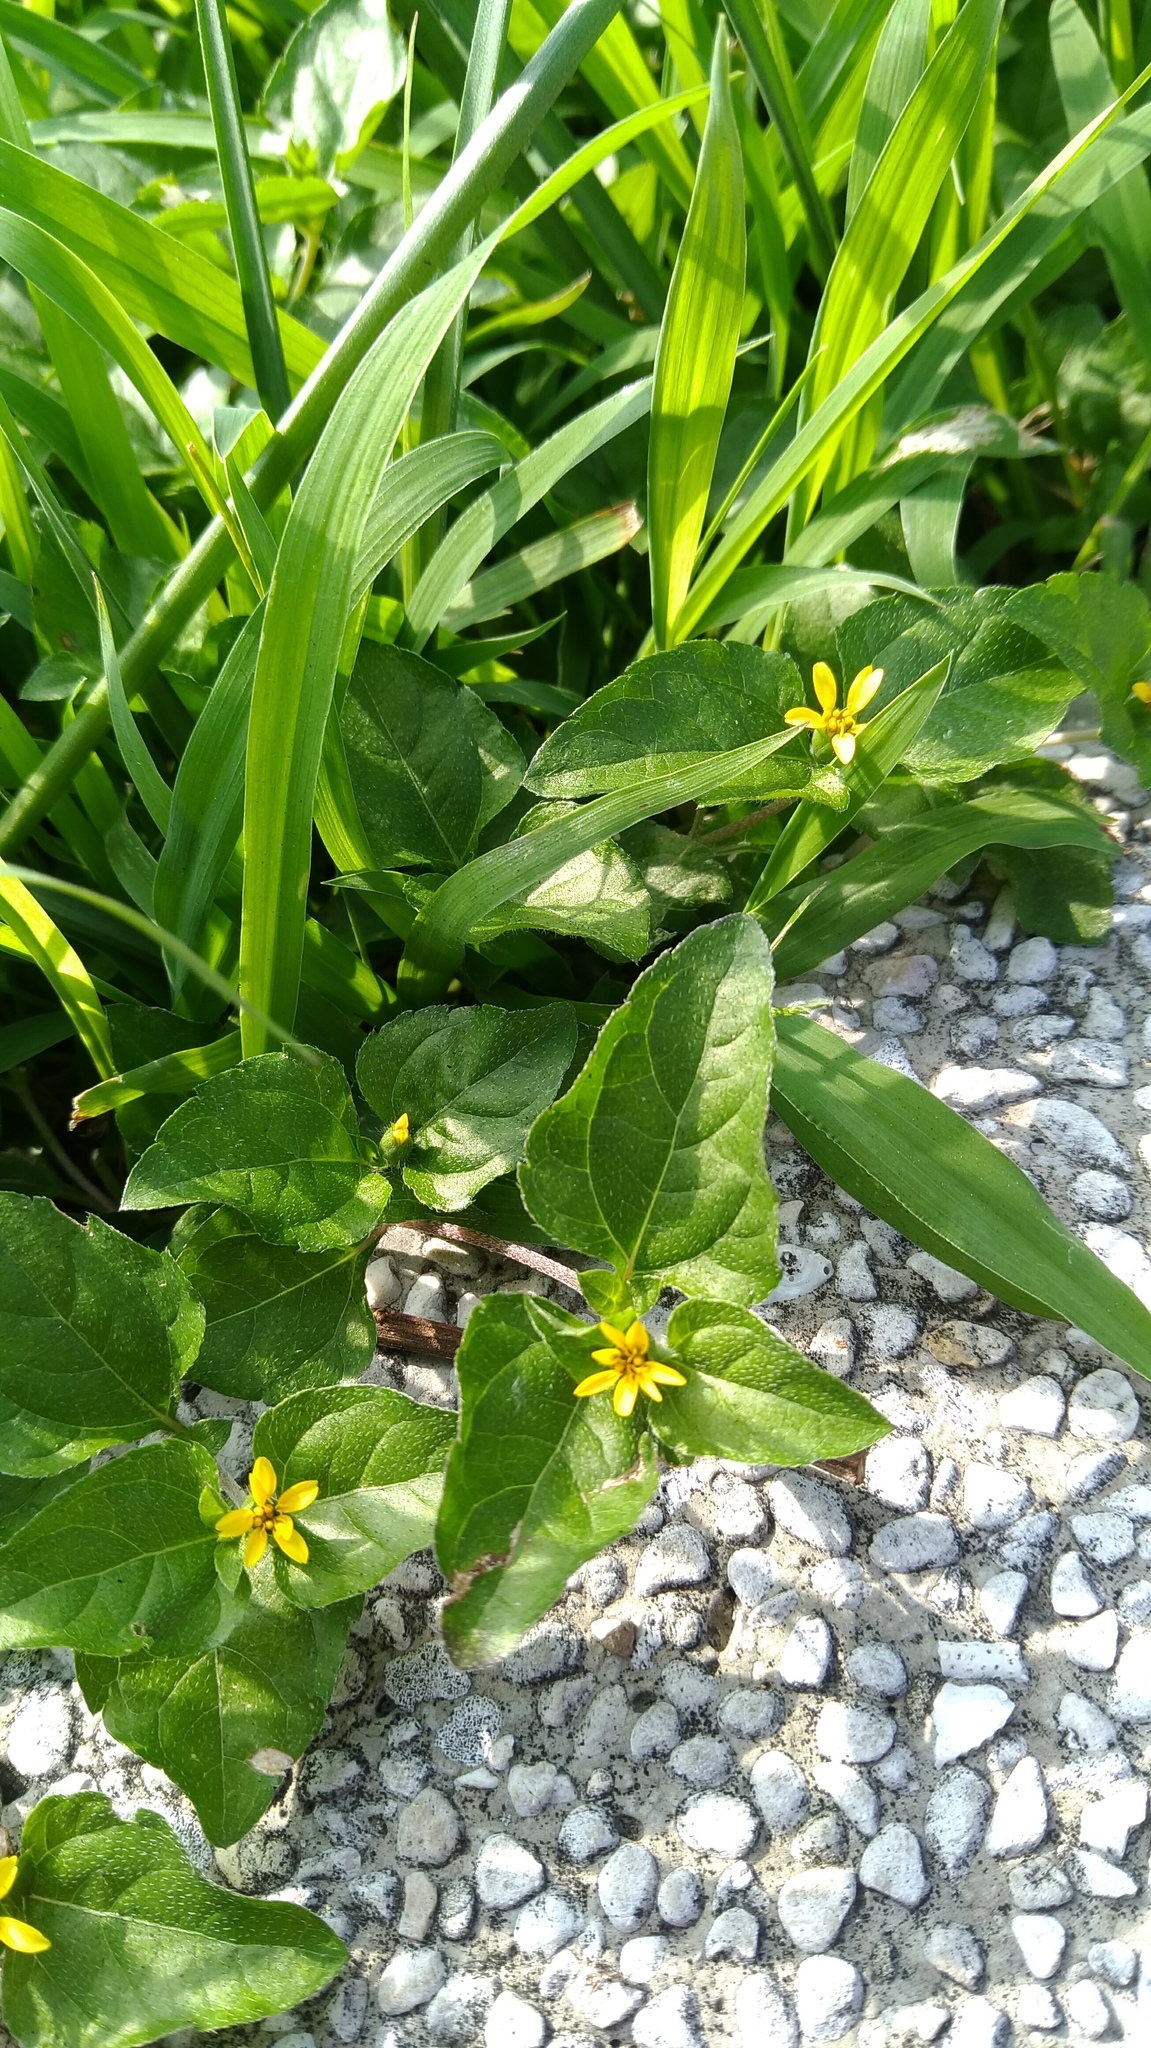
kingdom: Plantae
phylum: Tracheophyta
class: Magnoliopsida
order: Asterales
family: Asteraceae
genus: Calyptocarpus
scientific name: Calyptocarpus vialis
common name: Straggler daisy
